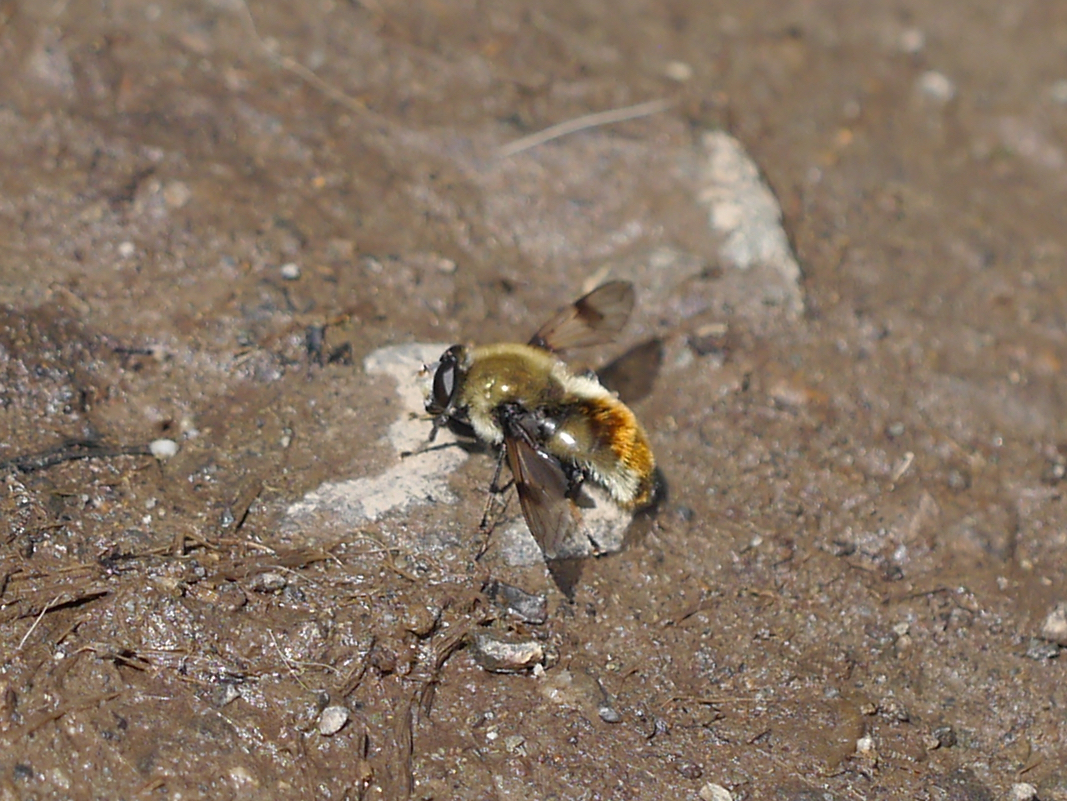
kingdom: Animalia
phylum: Arthropoda
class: Insecta
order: Diptera
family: Syrphidae
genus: Sericomyia
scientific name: Sericomyia flagrans
